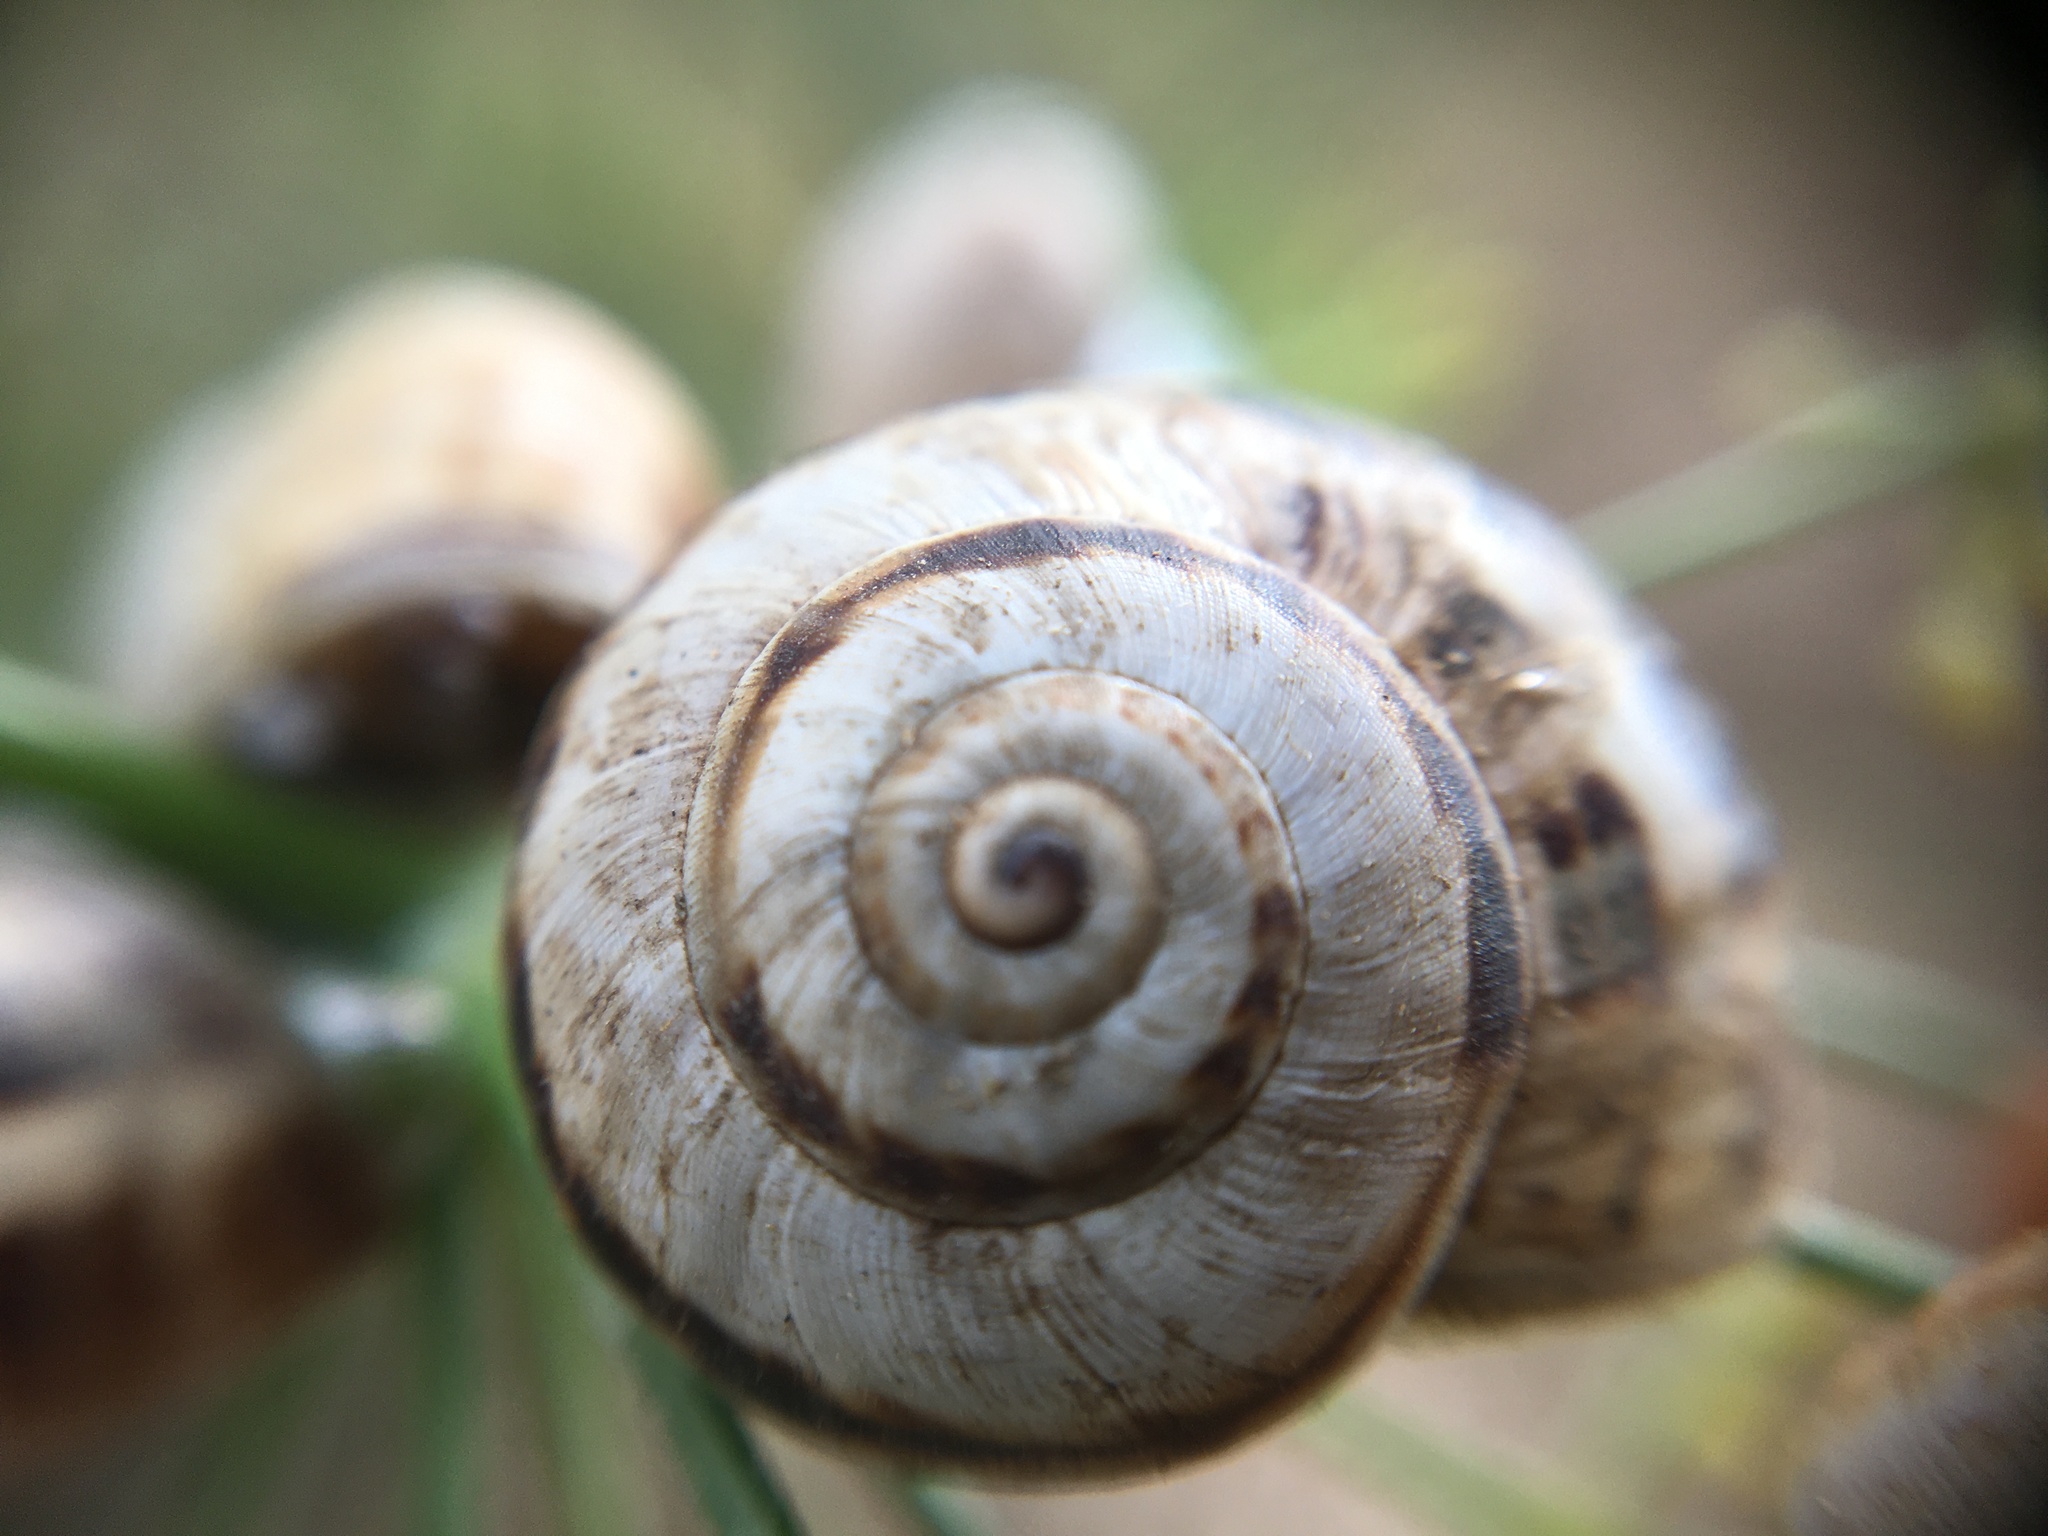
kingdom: Animalia
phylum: Mollusca
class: Gastropoda
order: Stylommatophora
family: Helicidae
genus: Theba
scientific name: Theba pisana
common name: White snail
